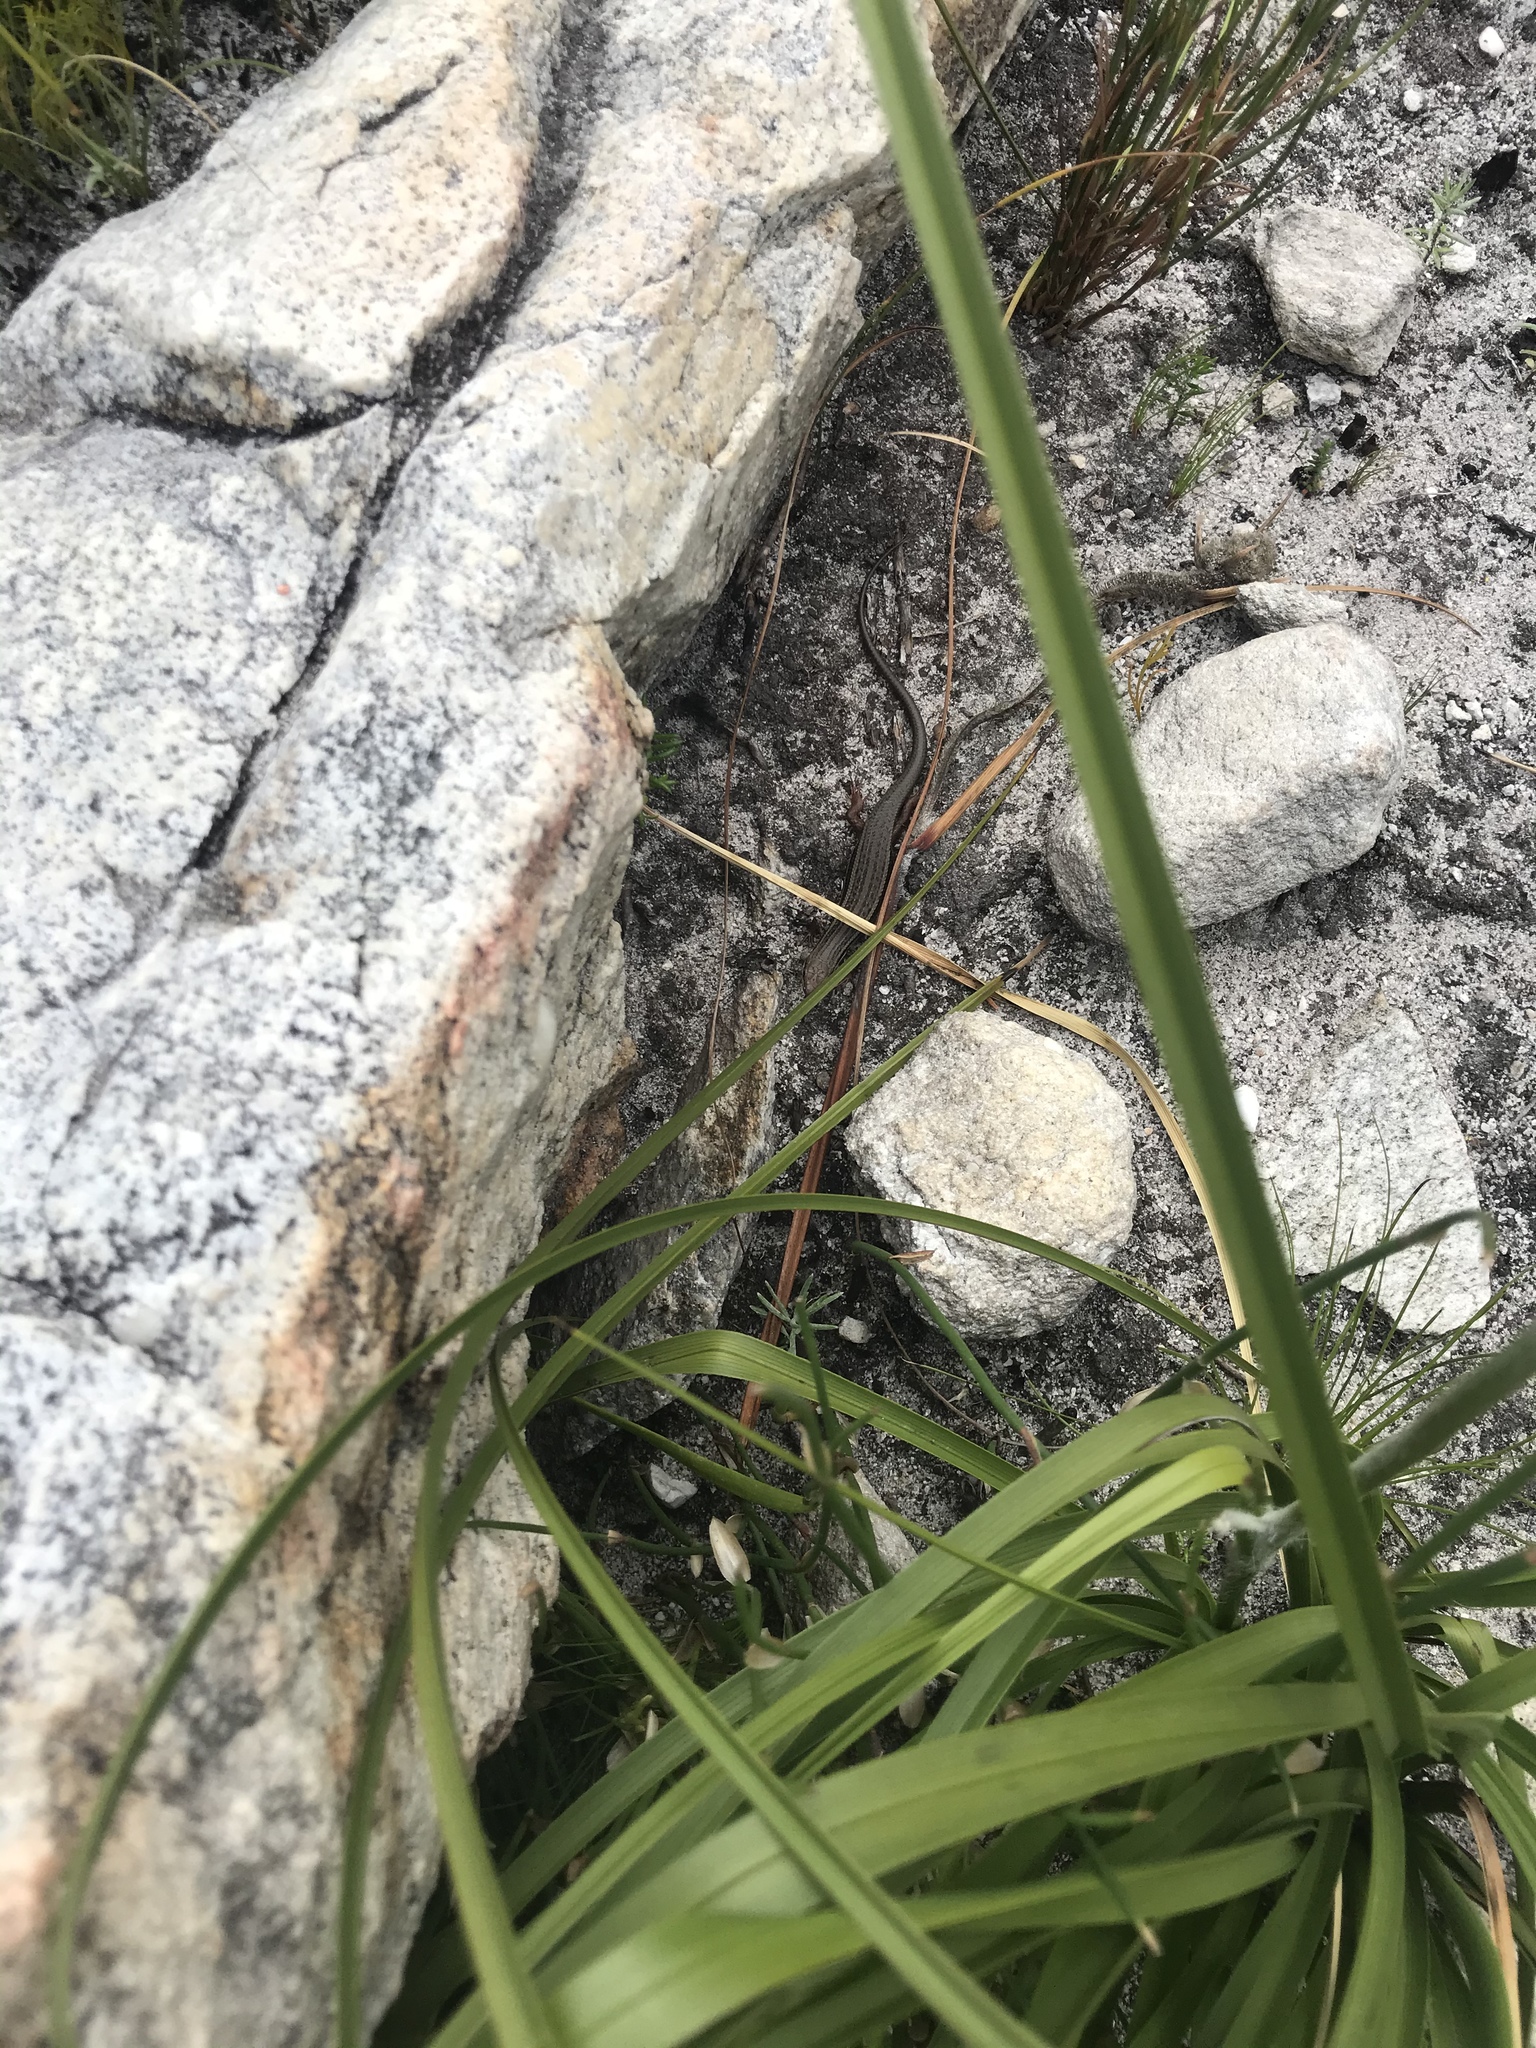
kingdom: Animalia
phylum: Chordata
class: Squamata
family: Scincidae
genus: Trachylepis
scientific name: Trachylepis homalocephala
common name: Red-sided skink
